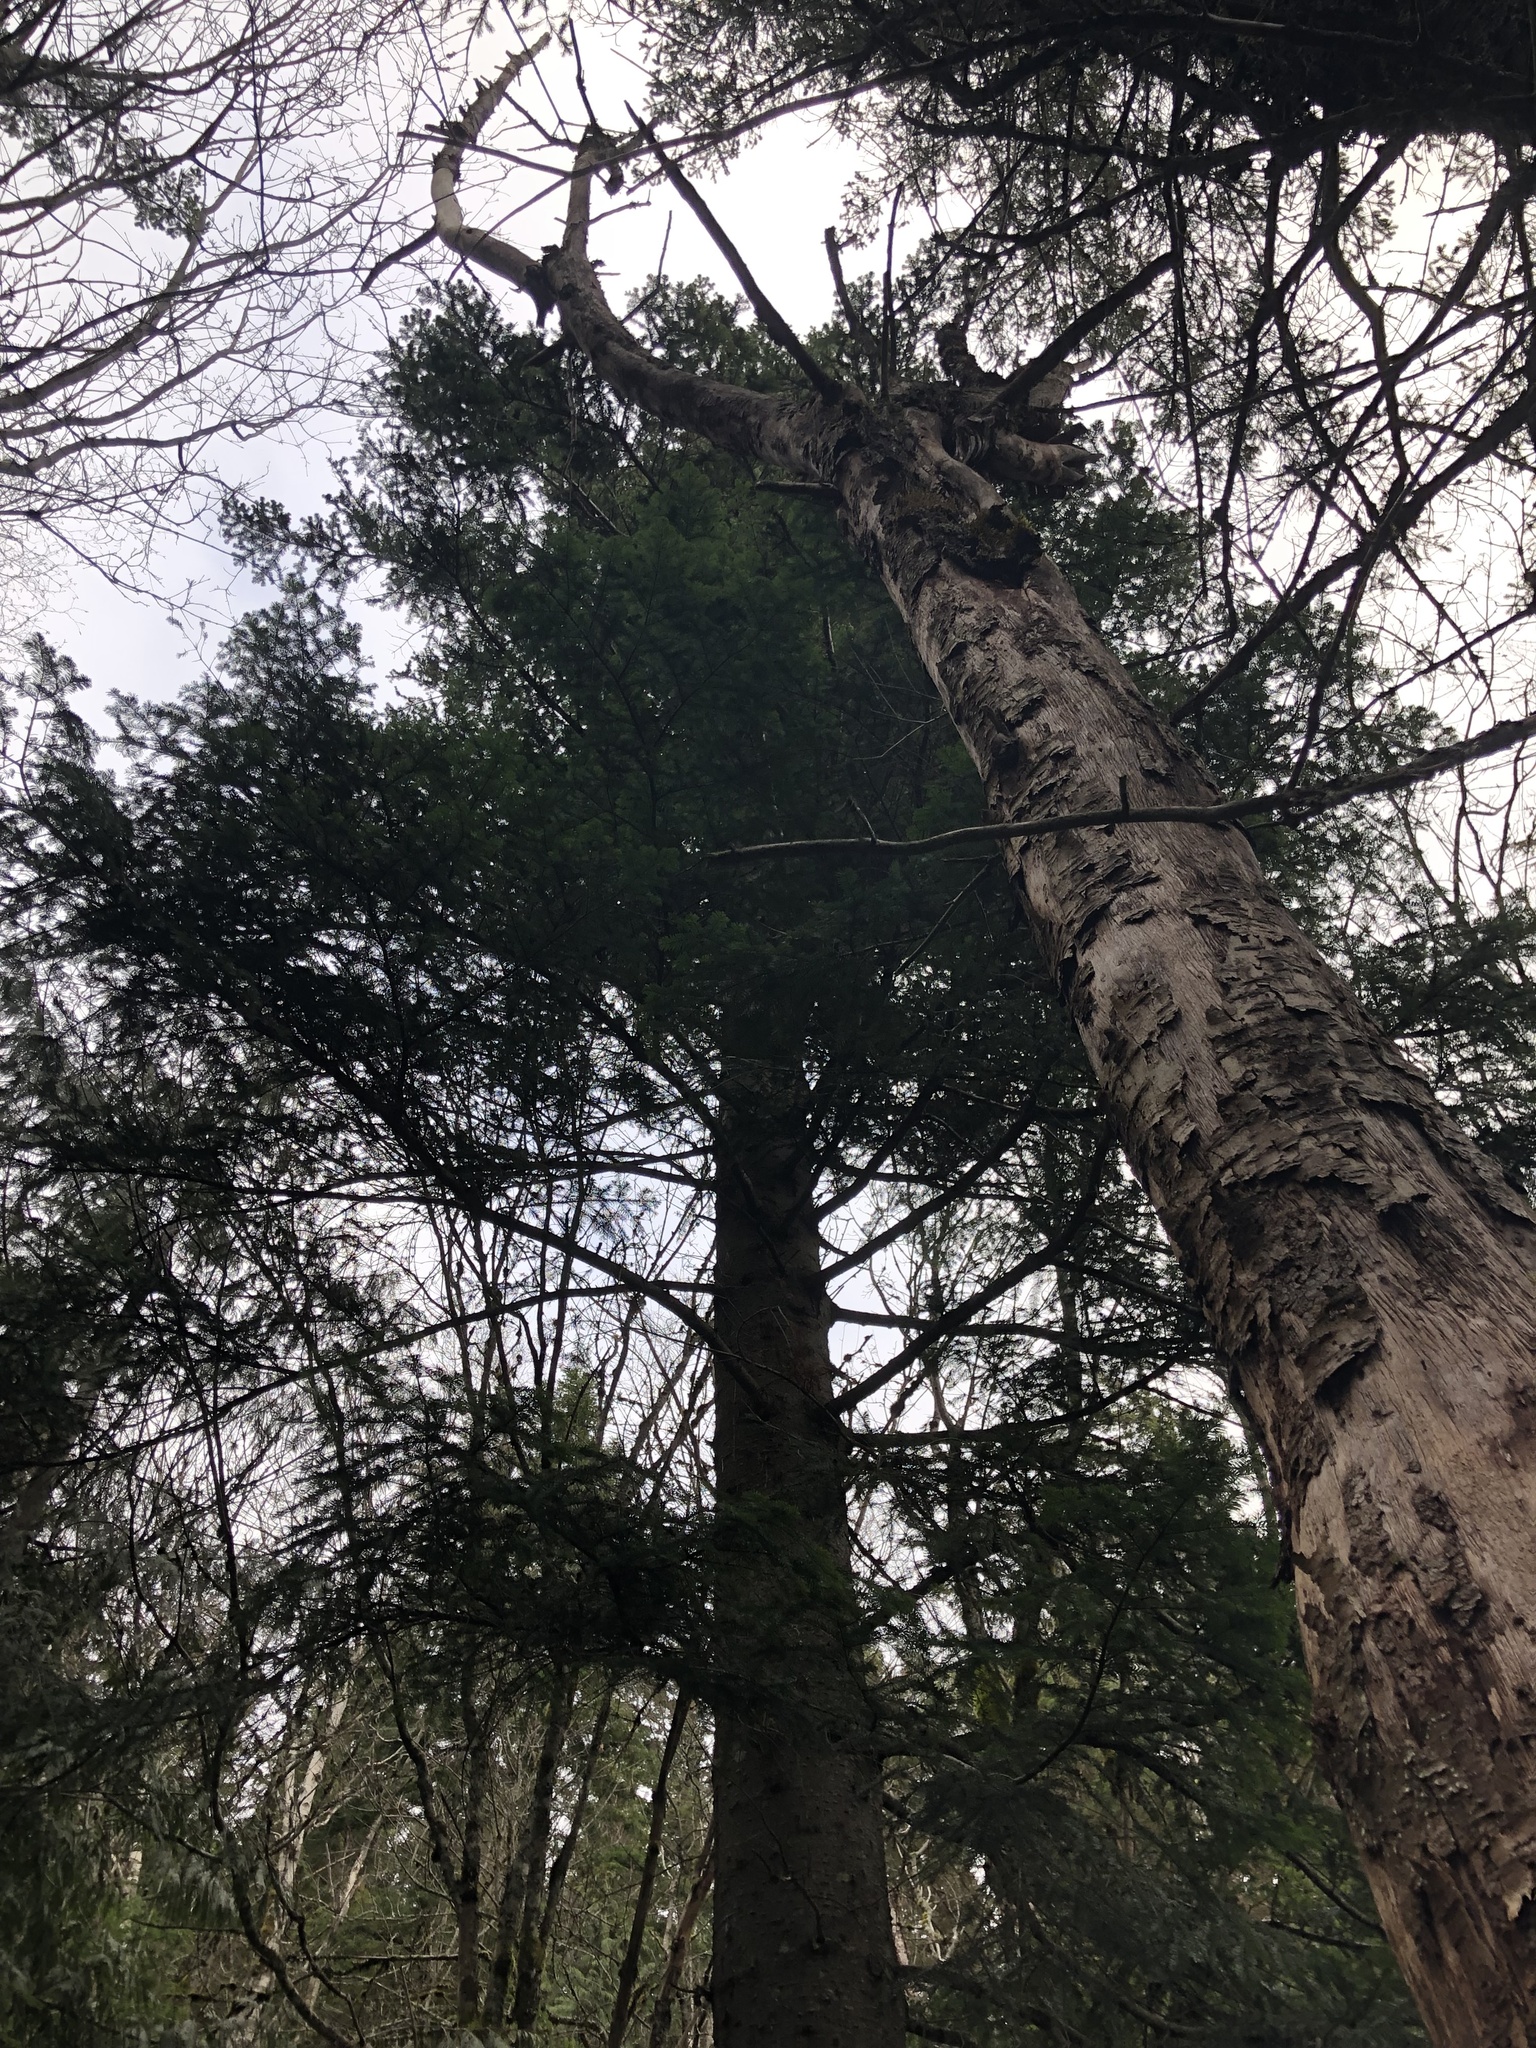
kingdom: Plantae
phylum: Tracheophyta
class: Pinopsida
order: Pinales
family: Pinaceae
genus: Picea
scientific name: Picea sitchensis
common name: Sitka spruce
